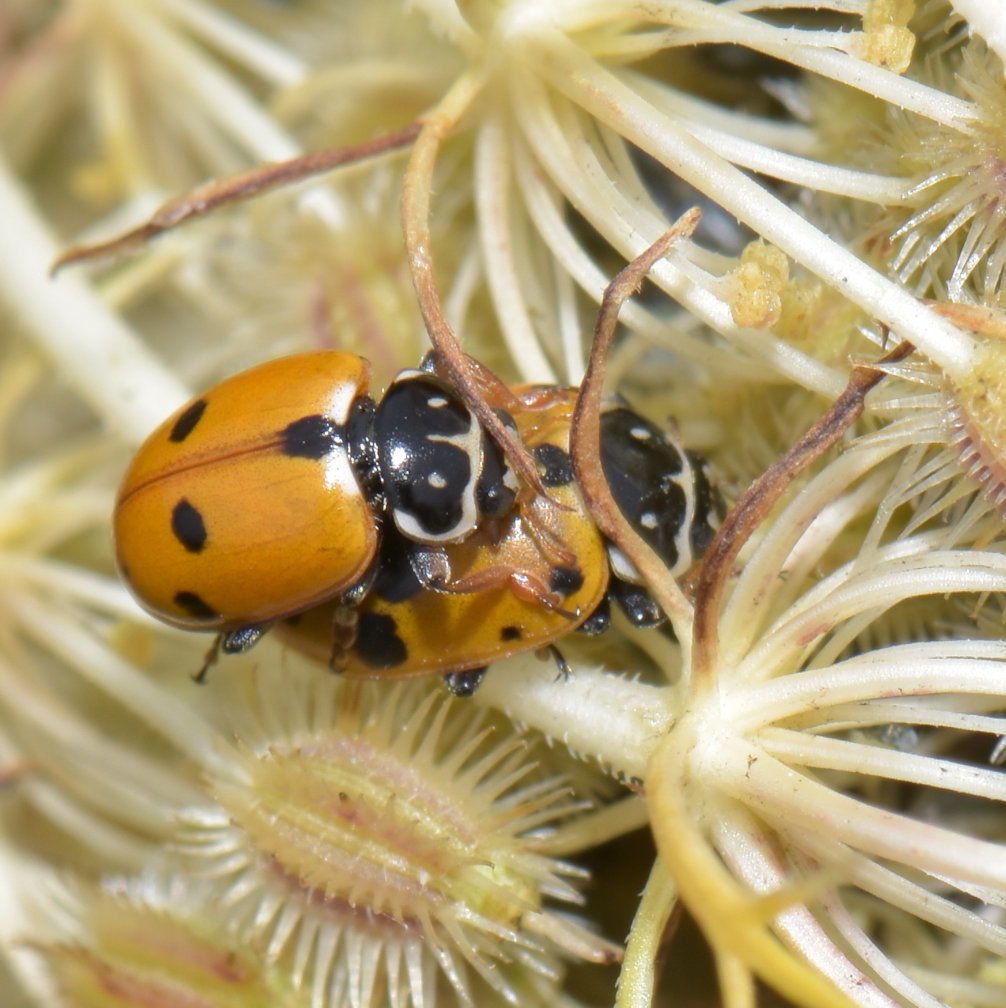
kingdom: Animalia
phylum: Arthropoda
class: Insecta
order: Coleoptera
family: Coccinellidae
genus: Hippodamia
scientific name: Hippodamia variegata
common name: Ladybird beetle
